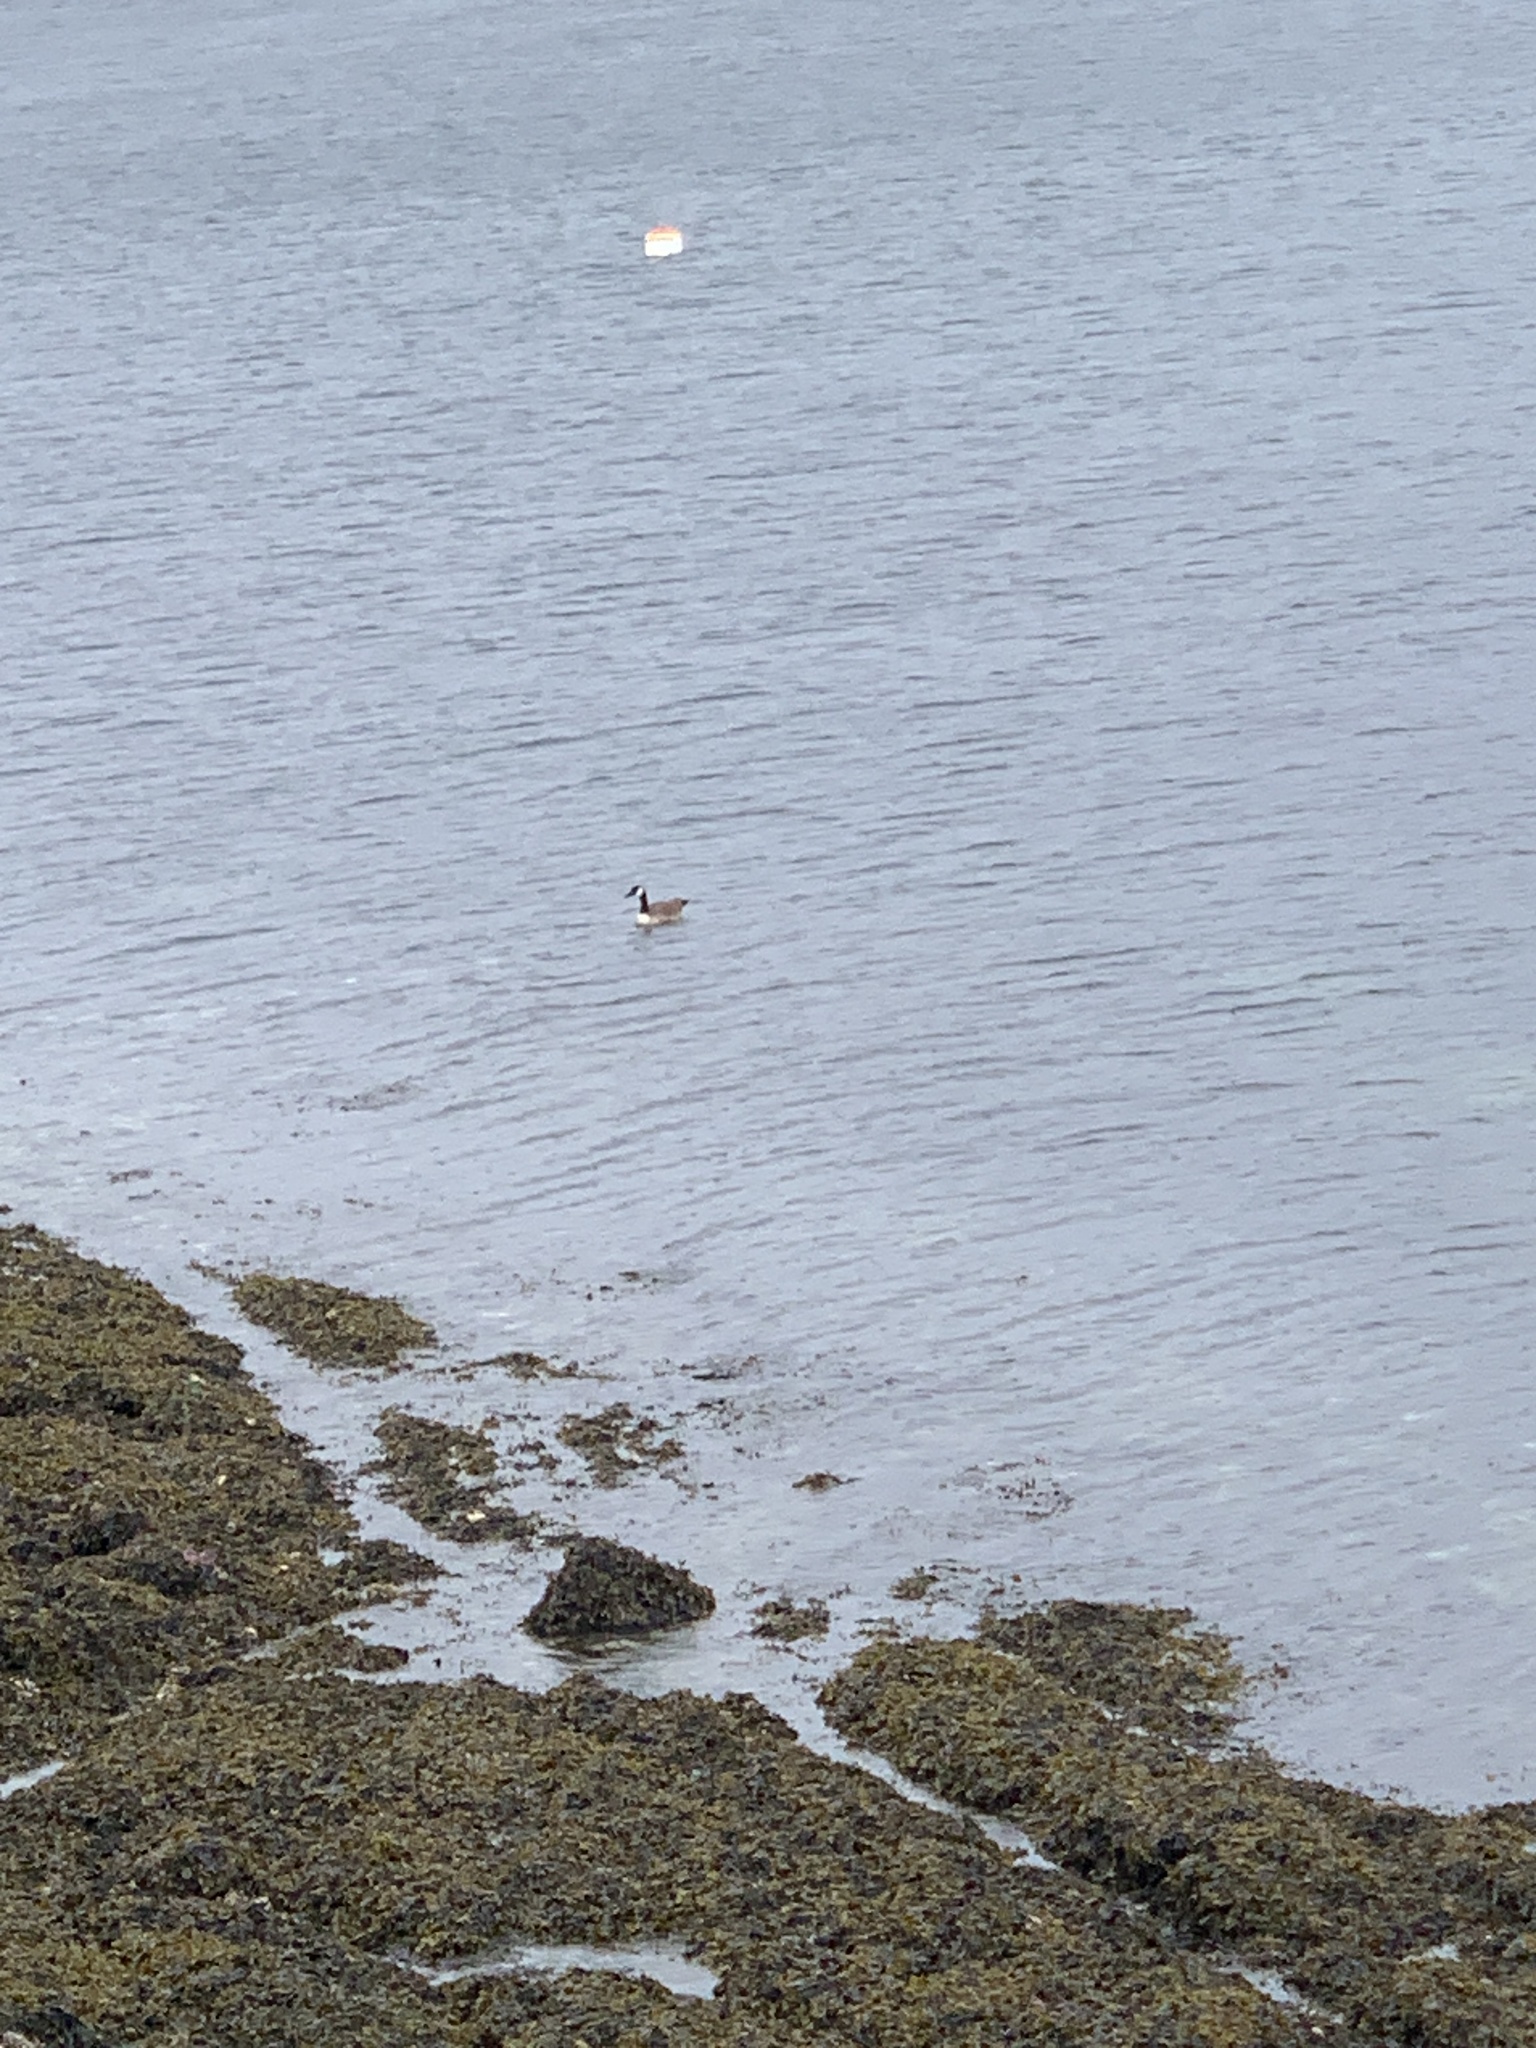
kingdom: Animalia
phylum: Chordata
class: Aves
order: Anseriformes
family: Anatidae
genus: Branta
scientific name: Branta canadensis
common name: Canada goose
